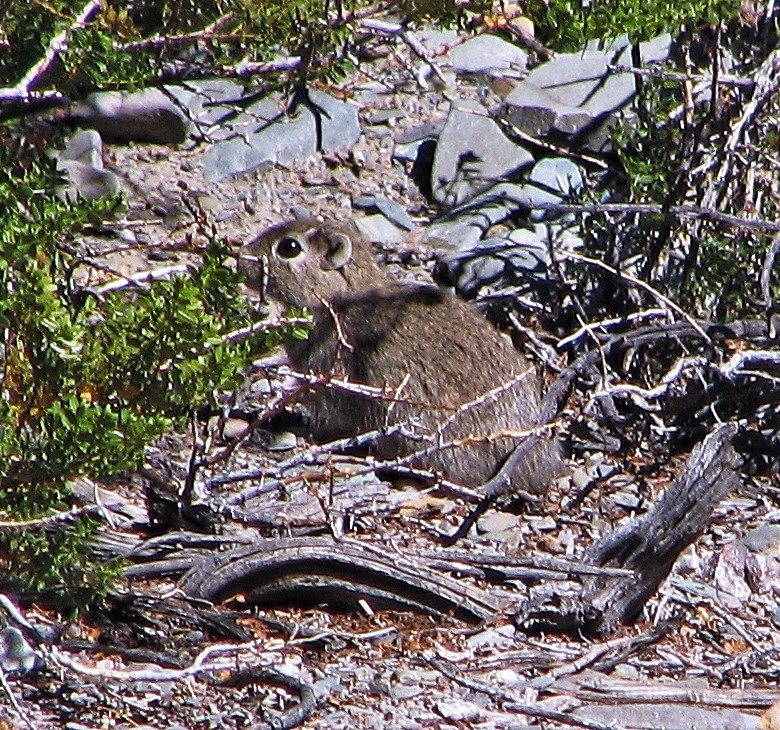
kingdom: Animalia
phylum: Chordata
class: Mammalia
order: Rodentia
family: Caviidae
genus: Microcavia
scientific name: Microcavia australis
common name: Southern mountain cavy
